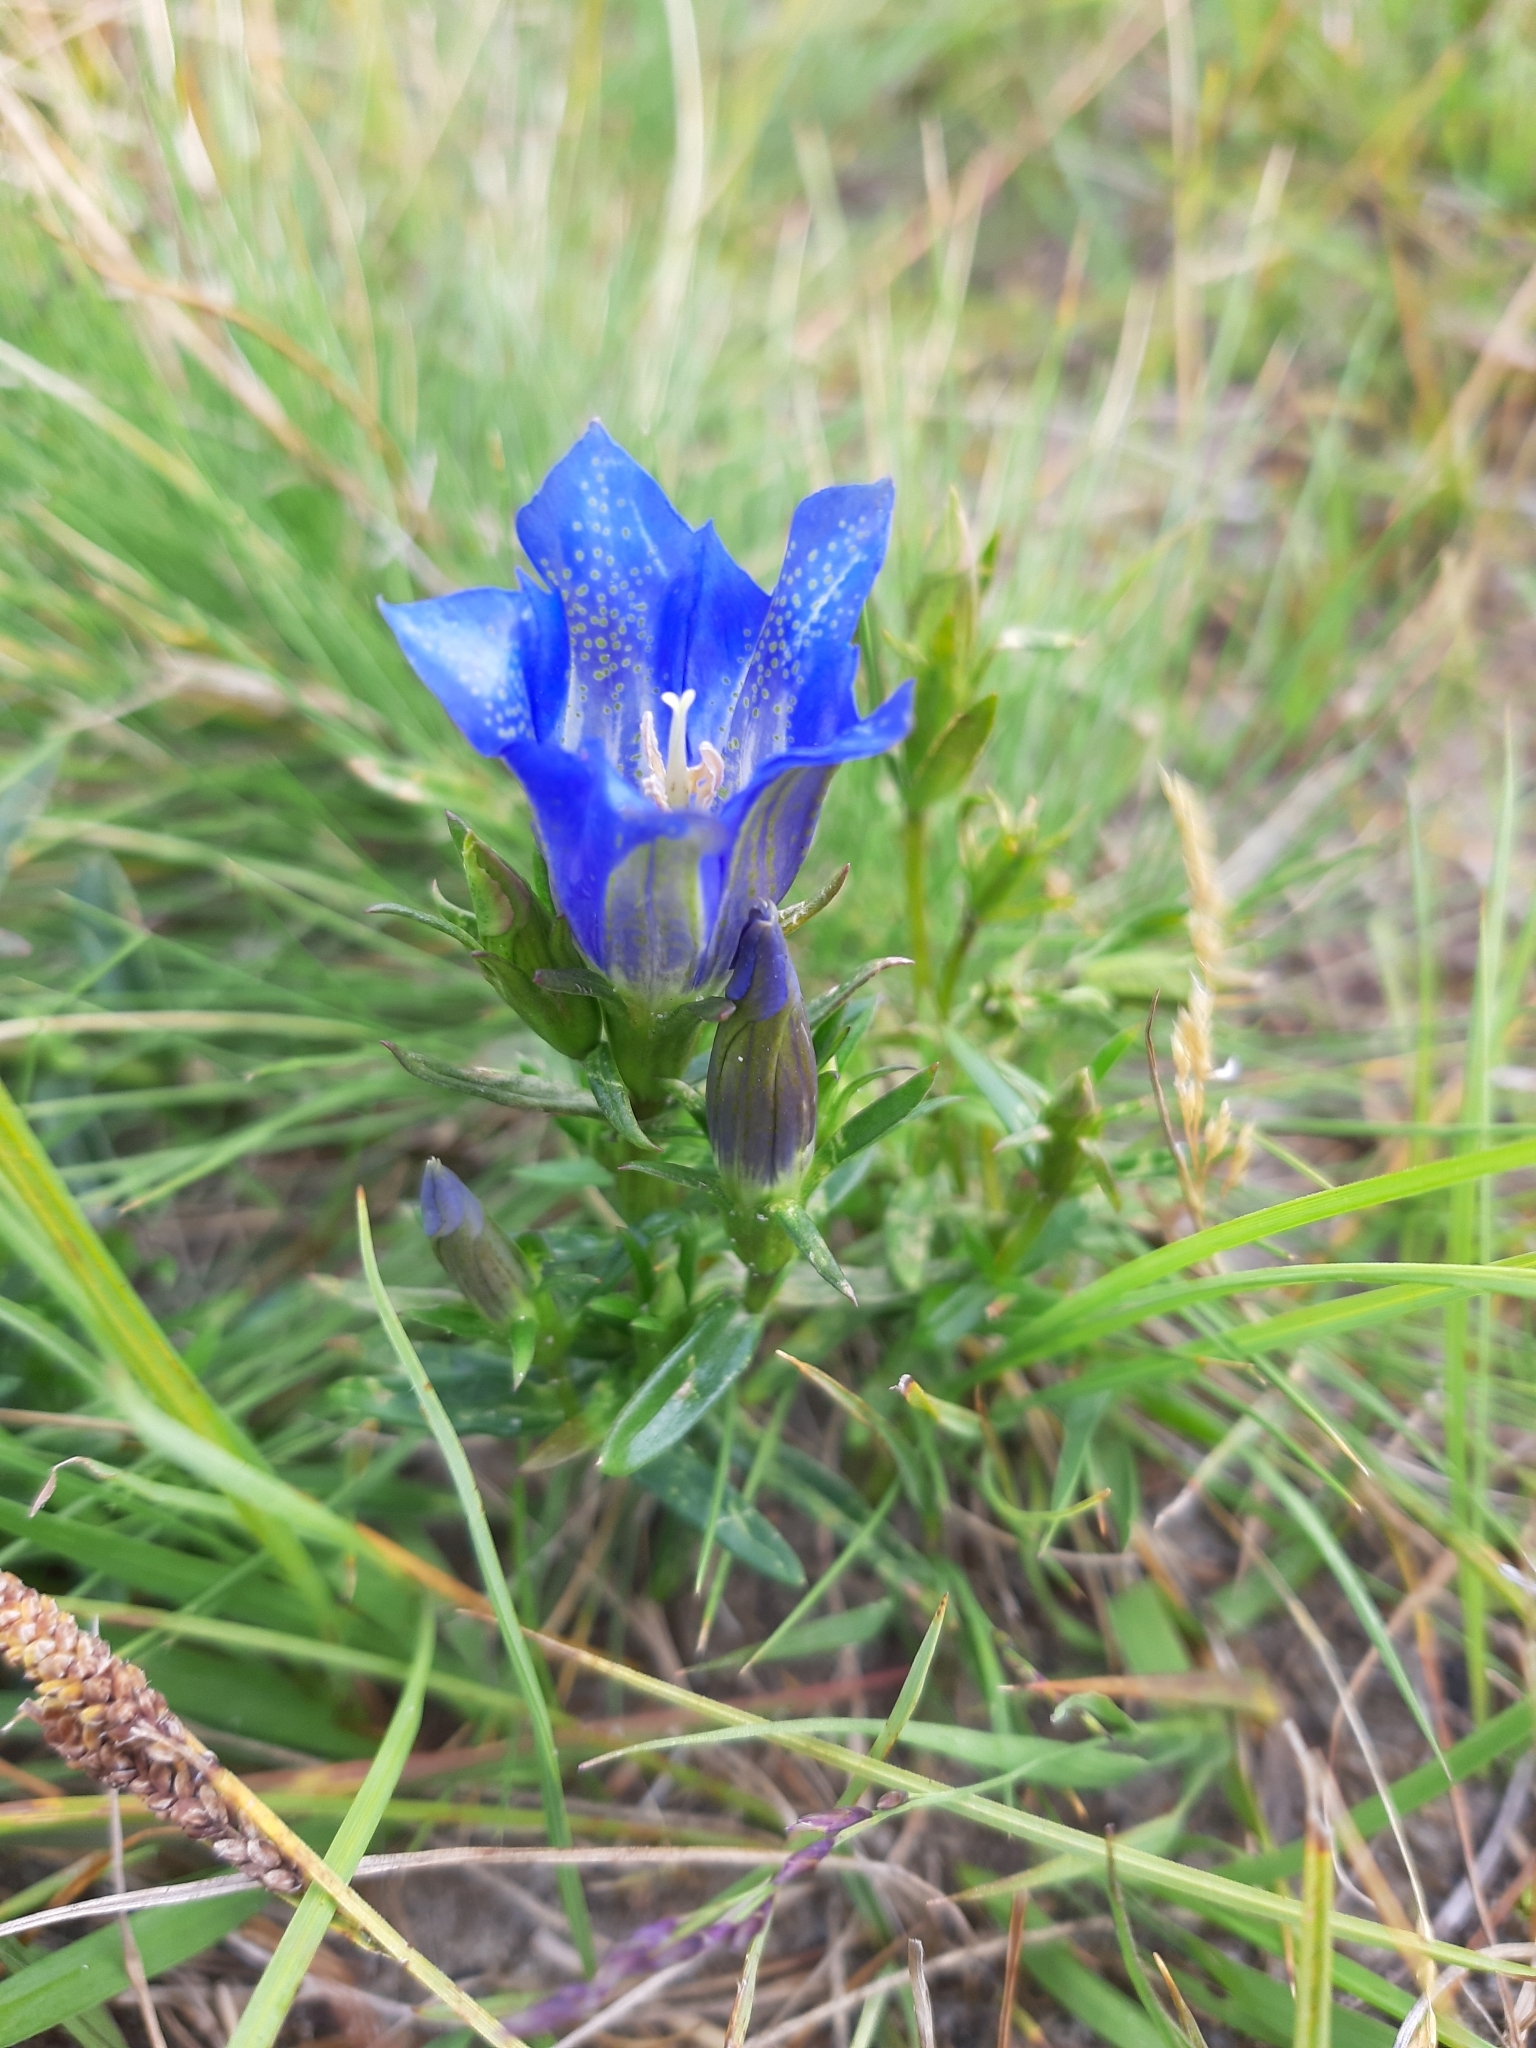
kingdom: Plantae
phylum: Tracheophyta
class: Magnoliopsida
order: Gentianales
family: Gentianaceae
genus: Gentiana
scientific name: Gentiana pneumonanthe
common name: Marsh gentian
